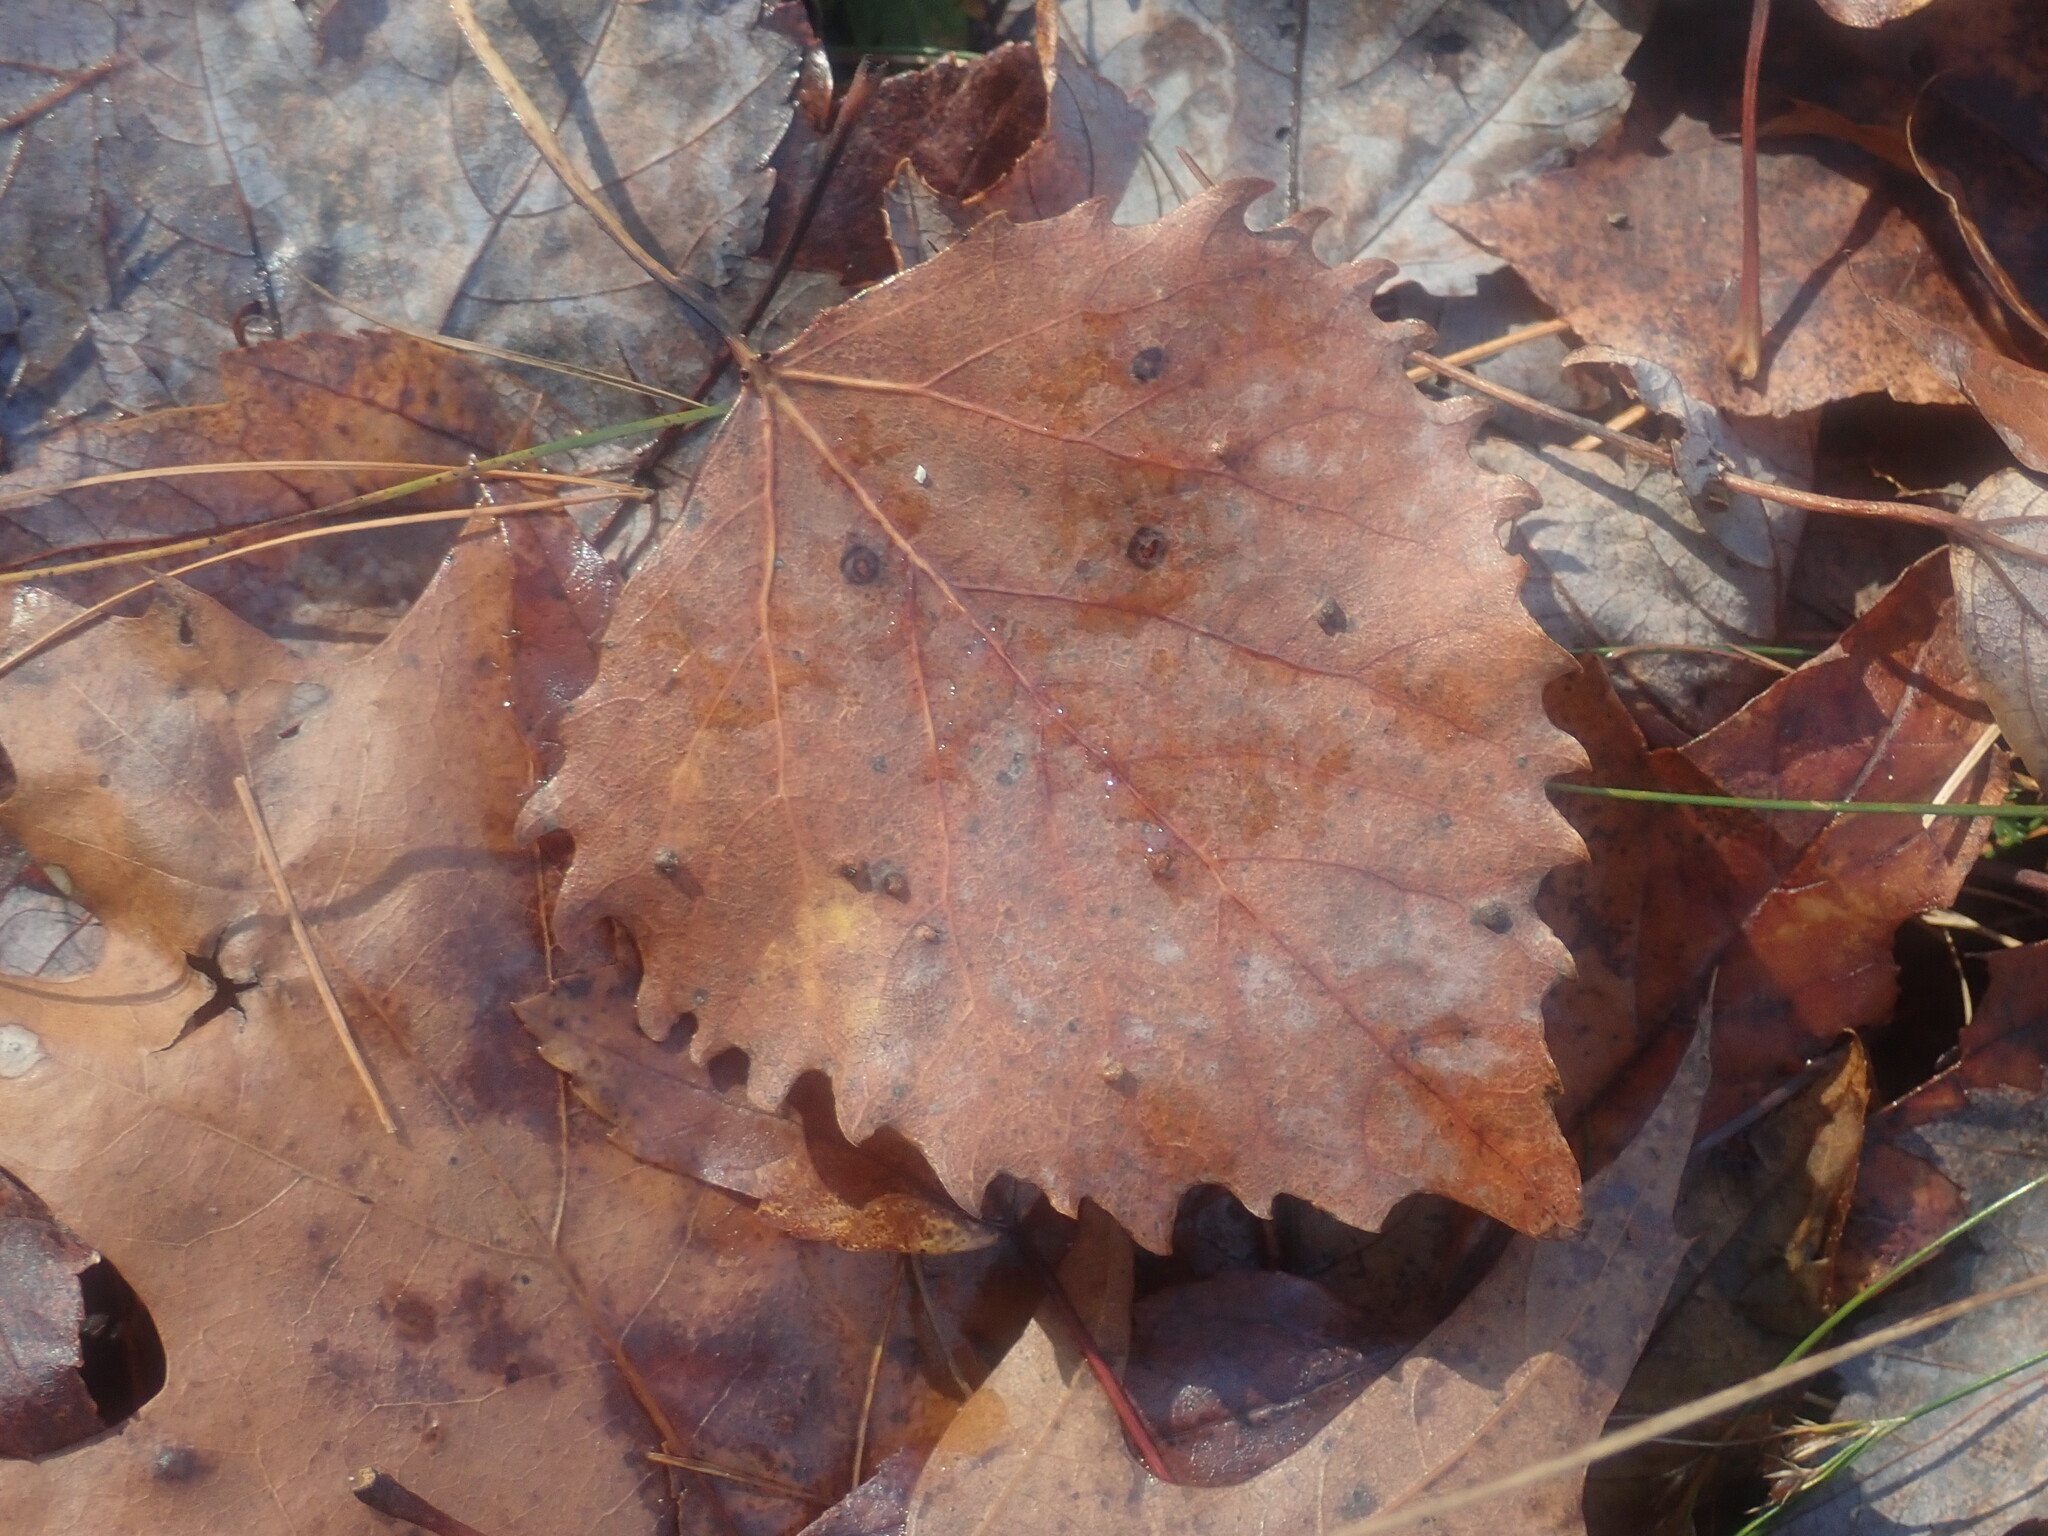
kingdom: Plantae
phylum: Tracheophyta
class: Magnoliopsida
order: Malpighiales
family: Salicaceae
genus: Populus
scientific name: Populus grandidentata
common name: Bigtooth aspen
